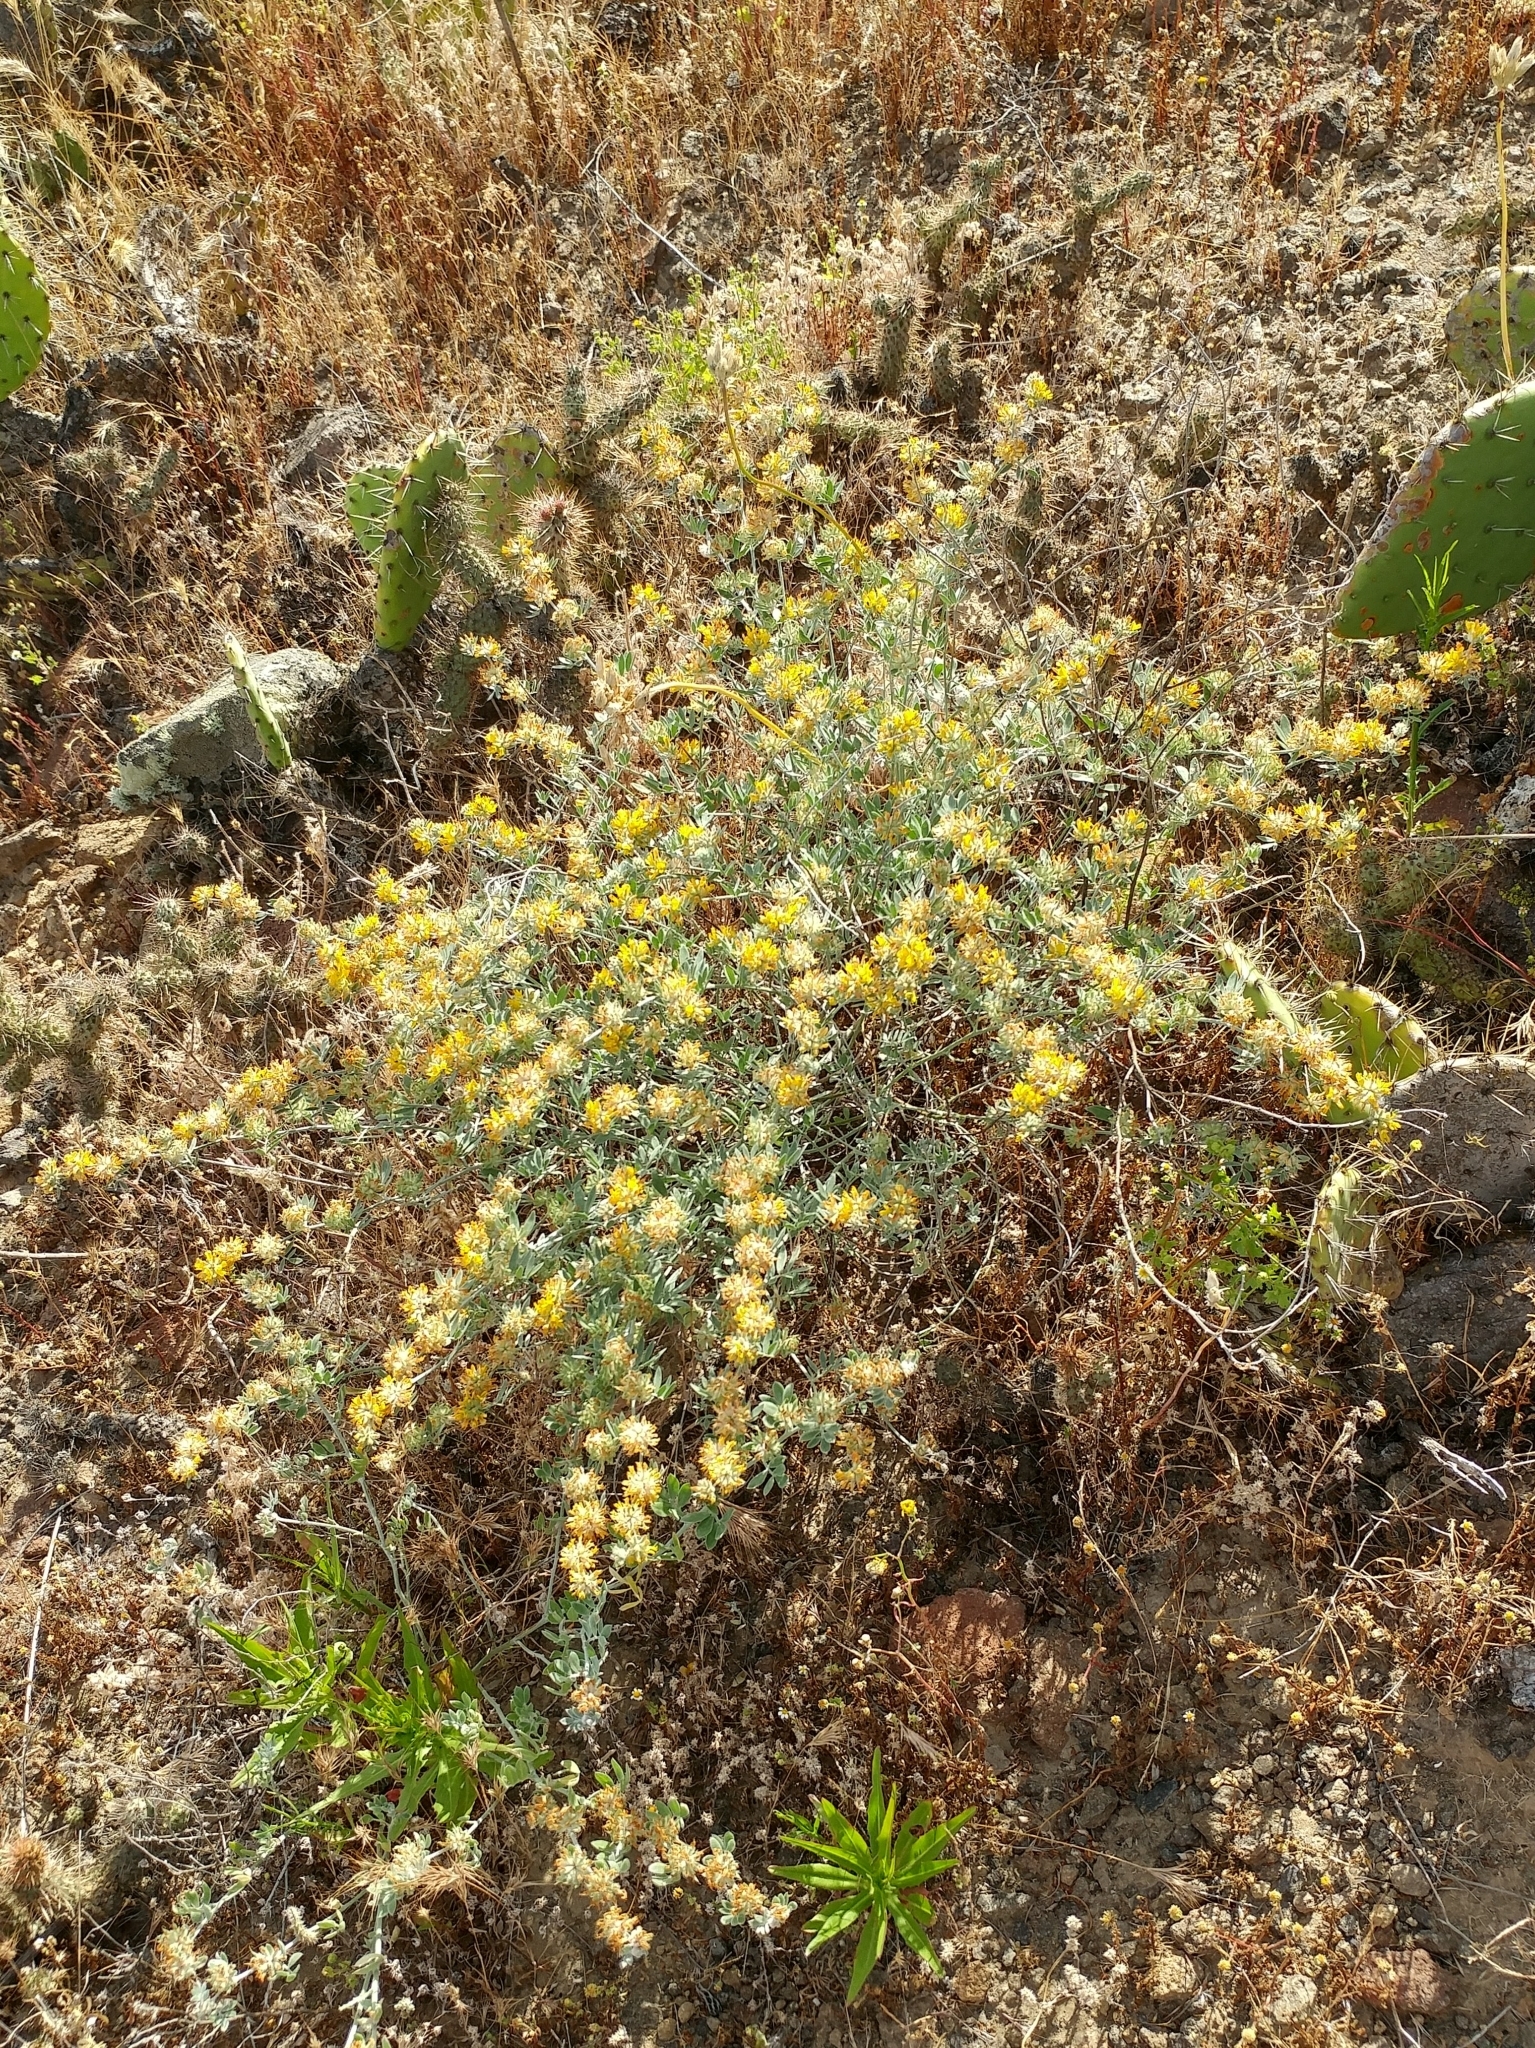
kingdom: Plantae
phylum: Tracheophyta
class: Magnoliopsida
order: Fabales
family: Fabaceae
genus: Acmispon
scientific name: Acmispon argophyllus
